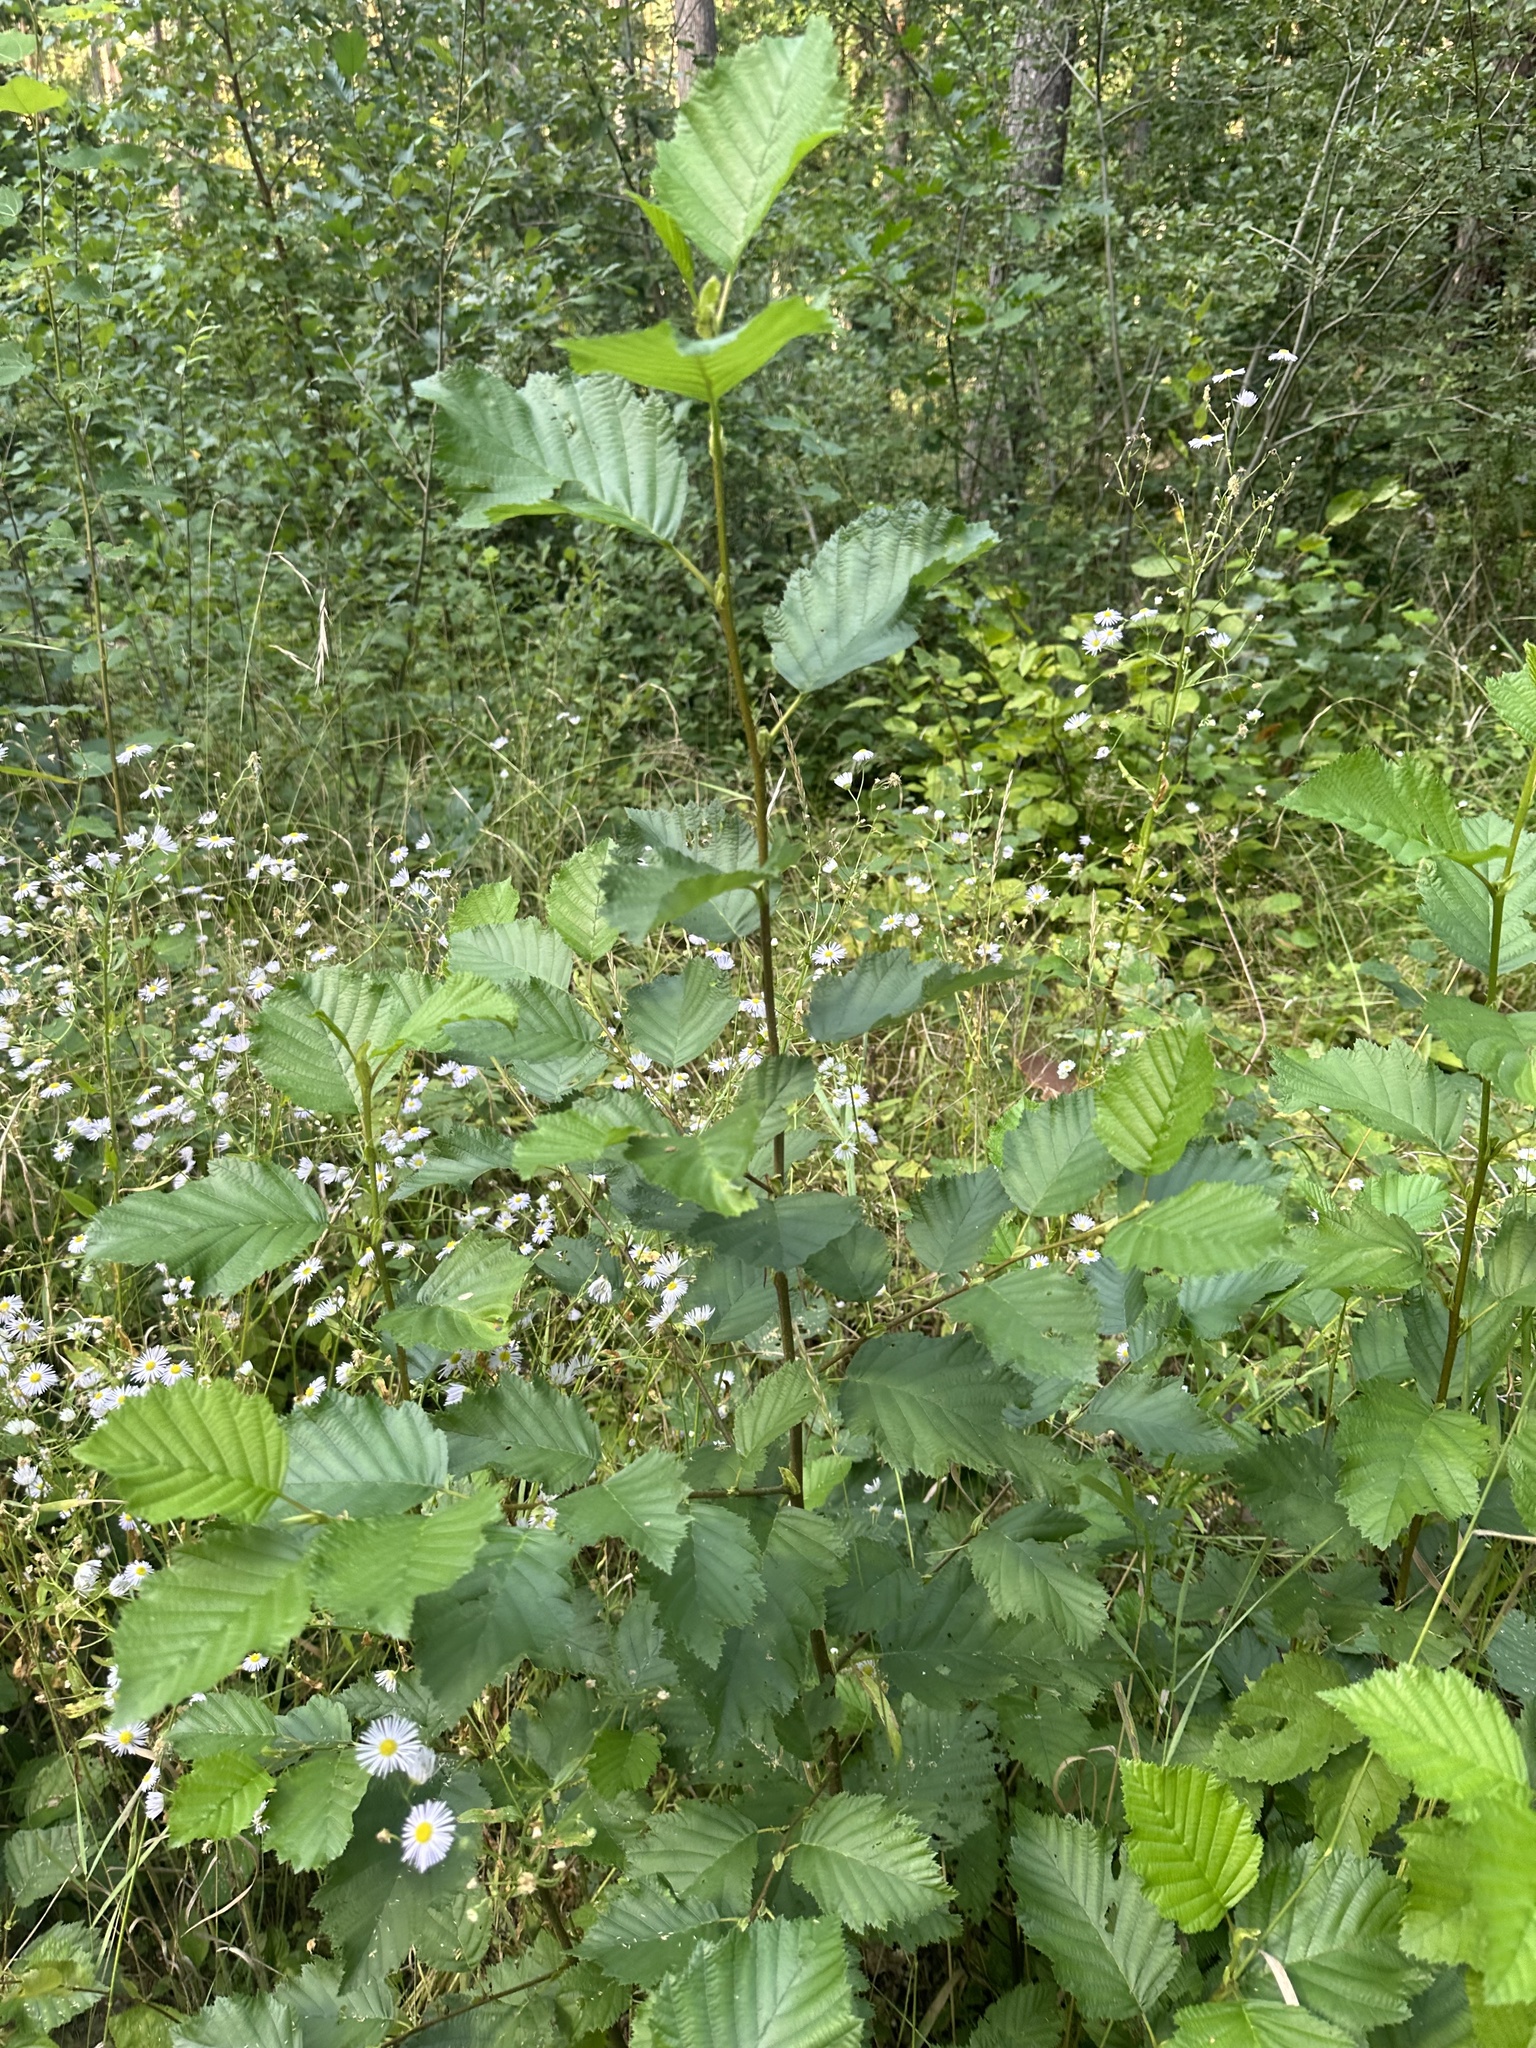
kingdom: Plantae
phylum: Tracheophyta
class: Magnoliopsida
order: Fagales
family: Betulaceae
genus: Alnus
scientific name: Alnus incana
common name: Grey alder
